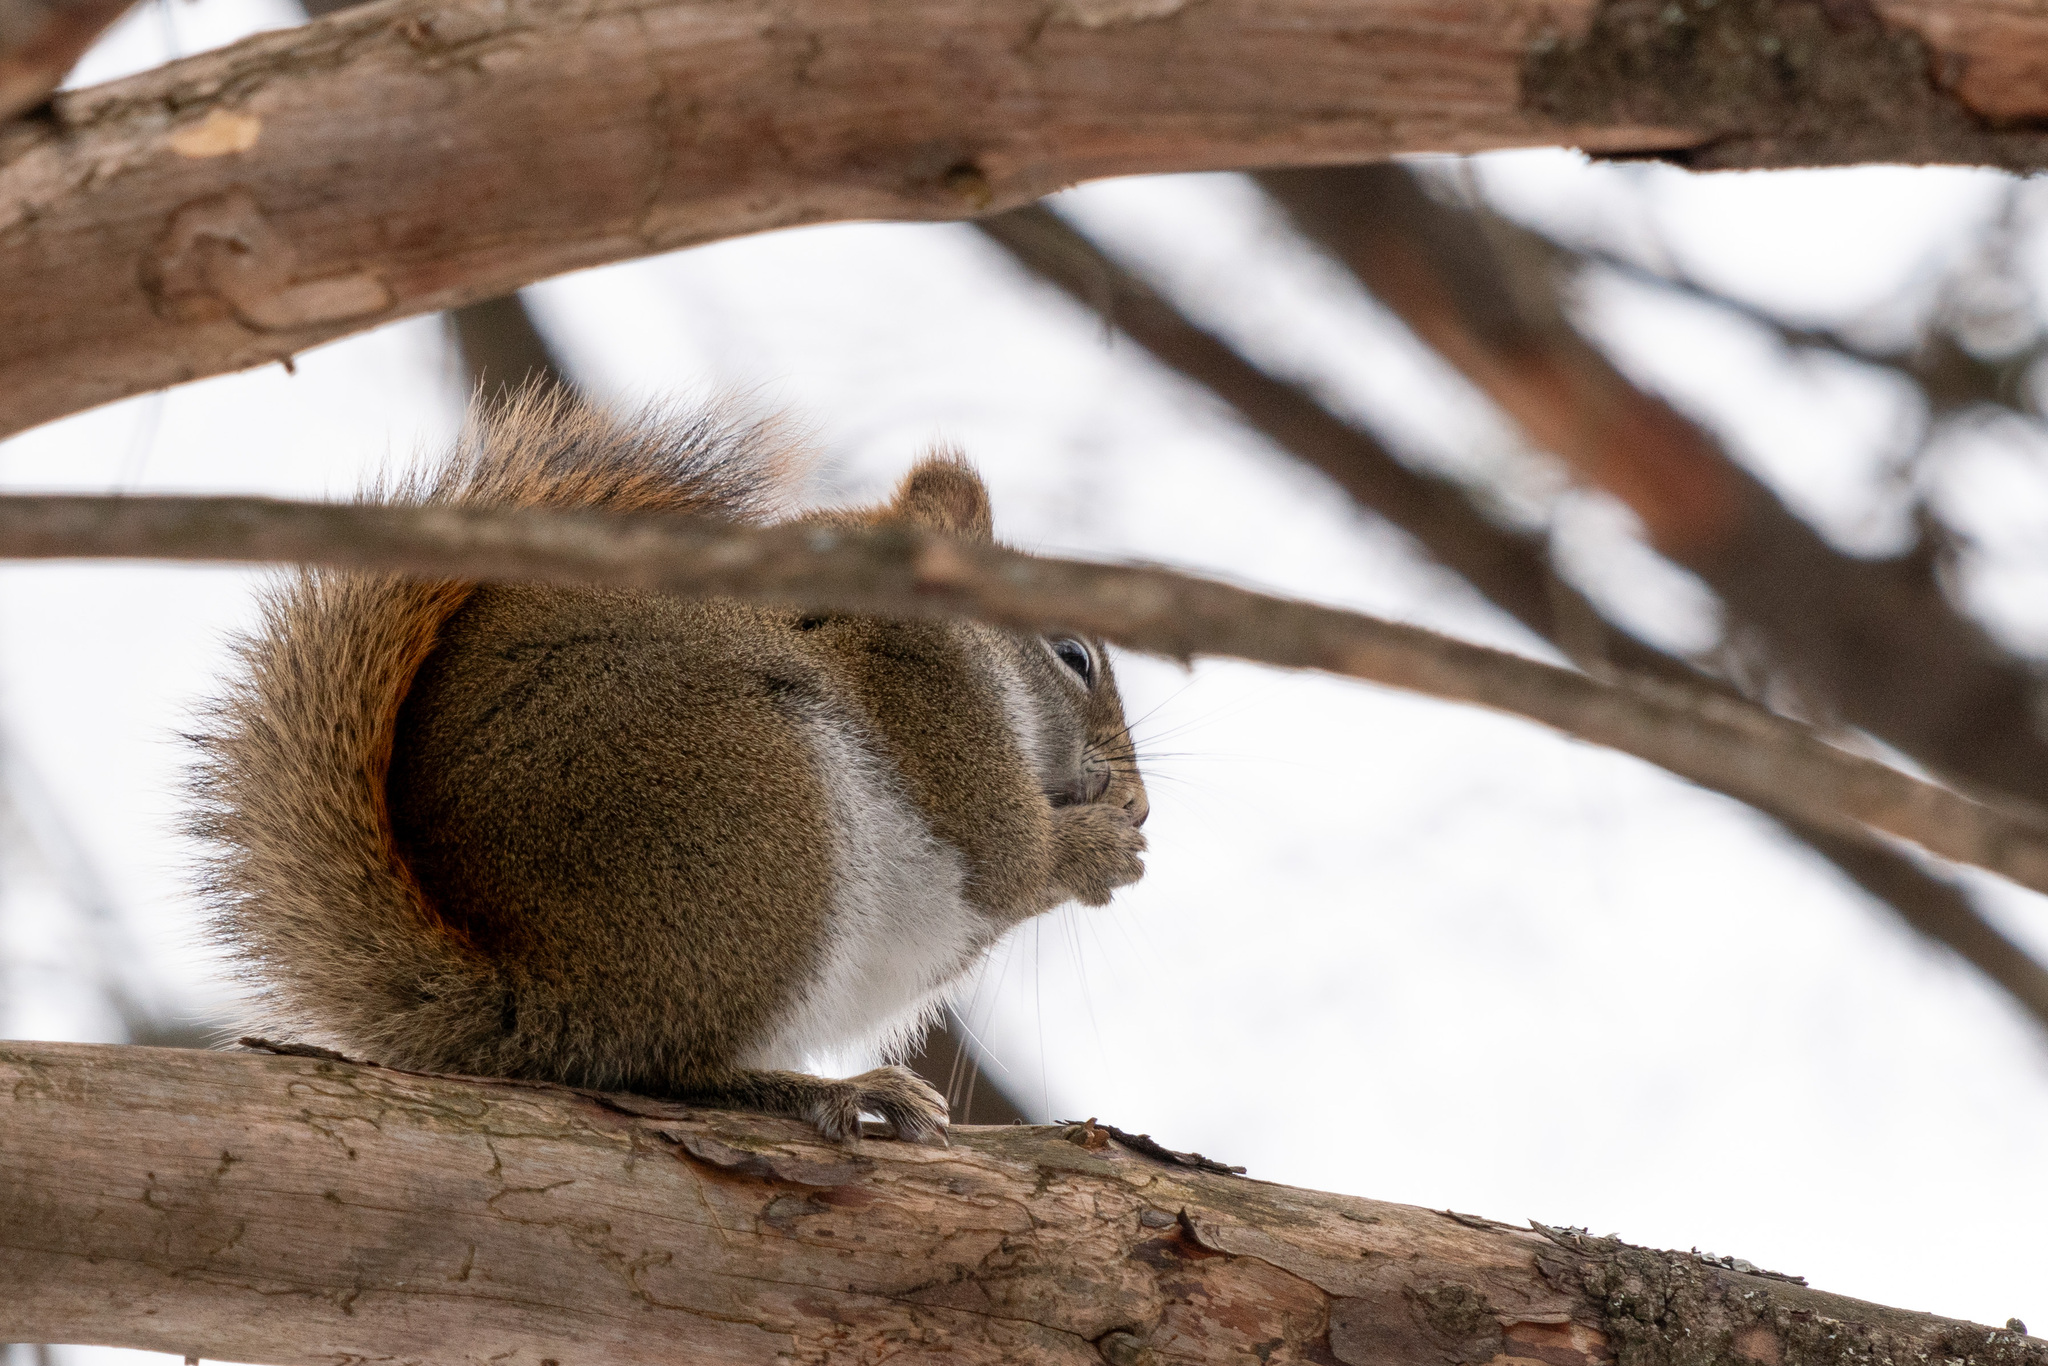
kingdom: Animalia
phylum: Chordata
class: Mammalia
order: Rodentia
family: Sciuridae
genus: Tamiasciurus
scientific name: Tamiasciurus hudsonicus
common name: Red squirrel
